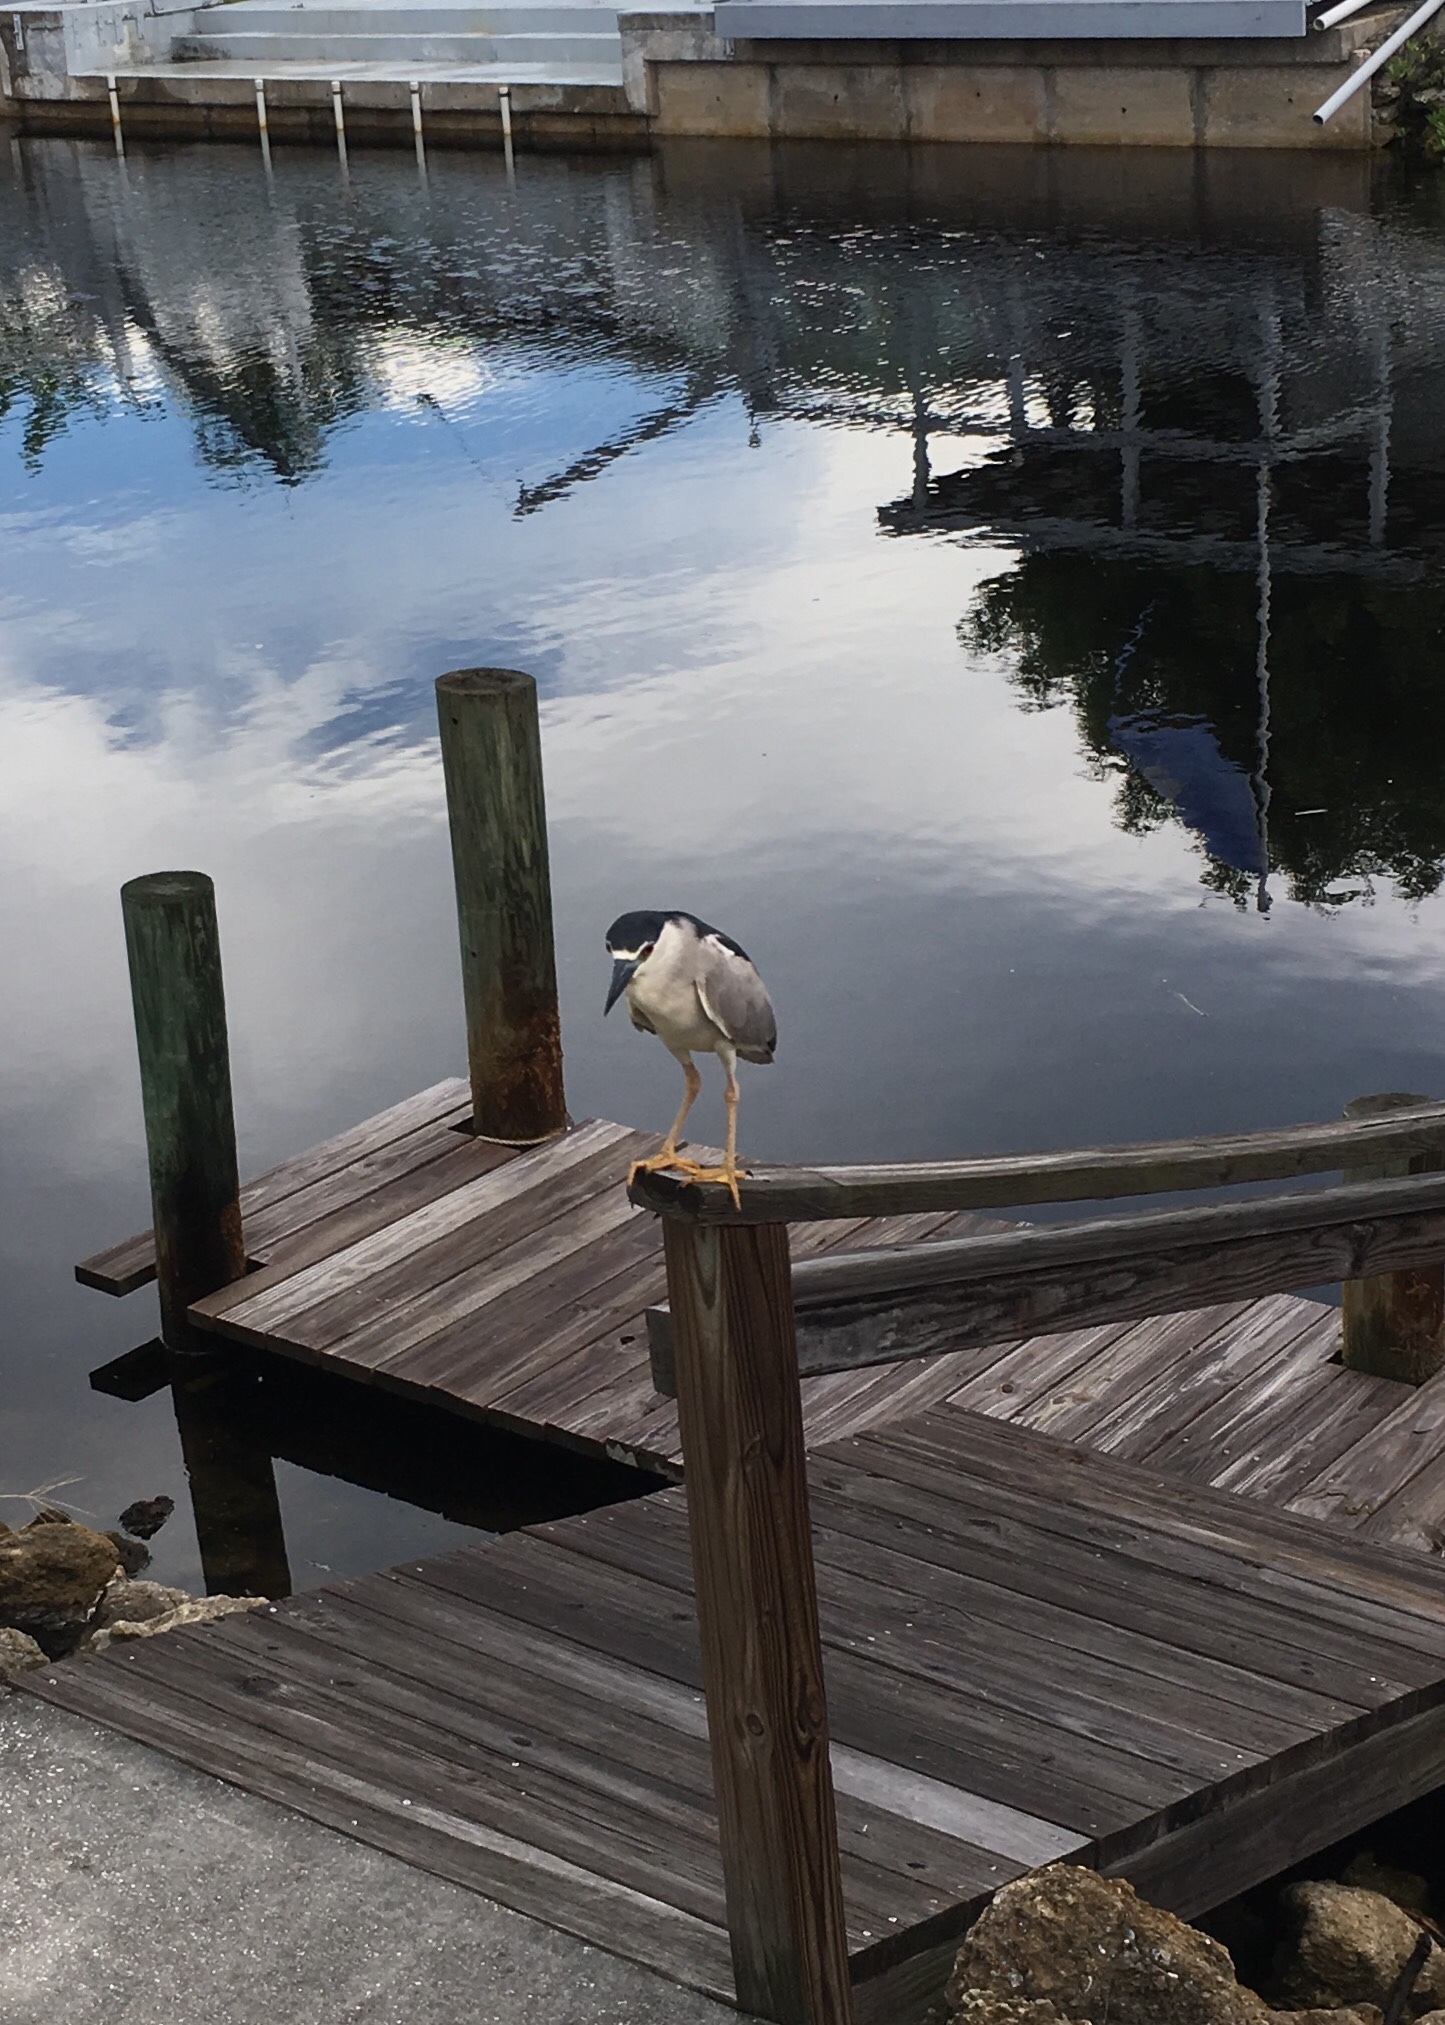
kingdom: Animalia
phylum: Chordata
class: Aves
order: Pelecaniformes
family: Ardeidae
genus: Nycticorax
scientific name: Nycticorax nycticorax
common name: Black-crowned night heron
